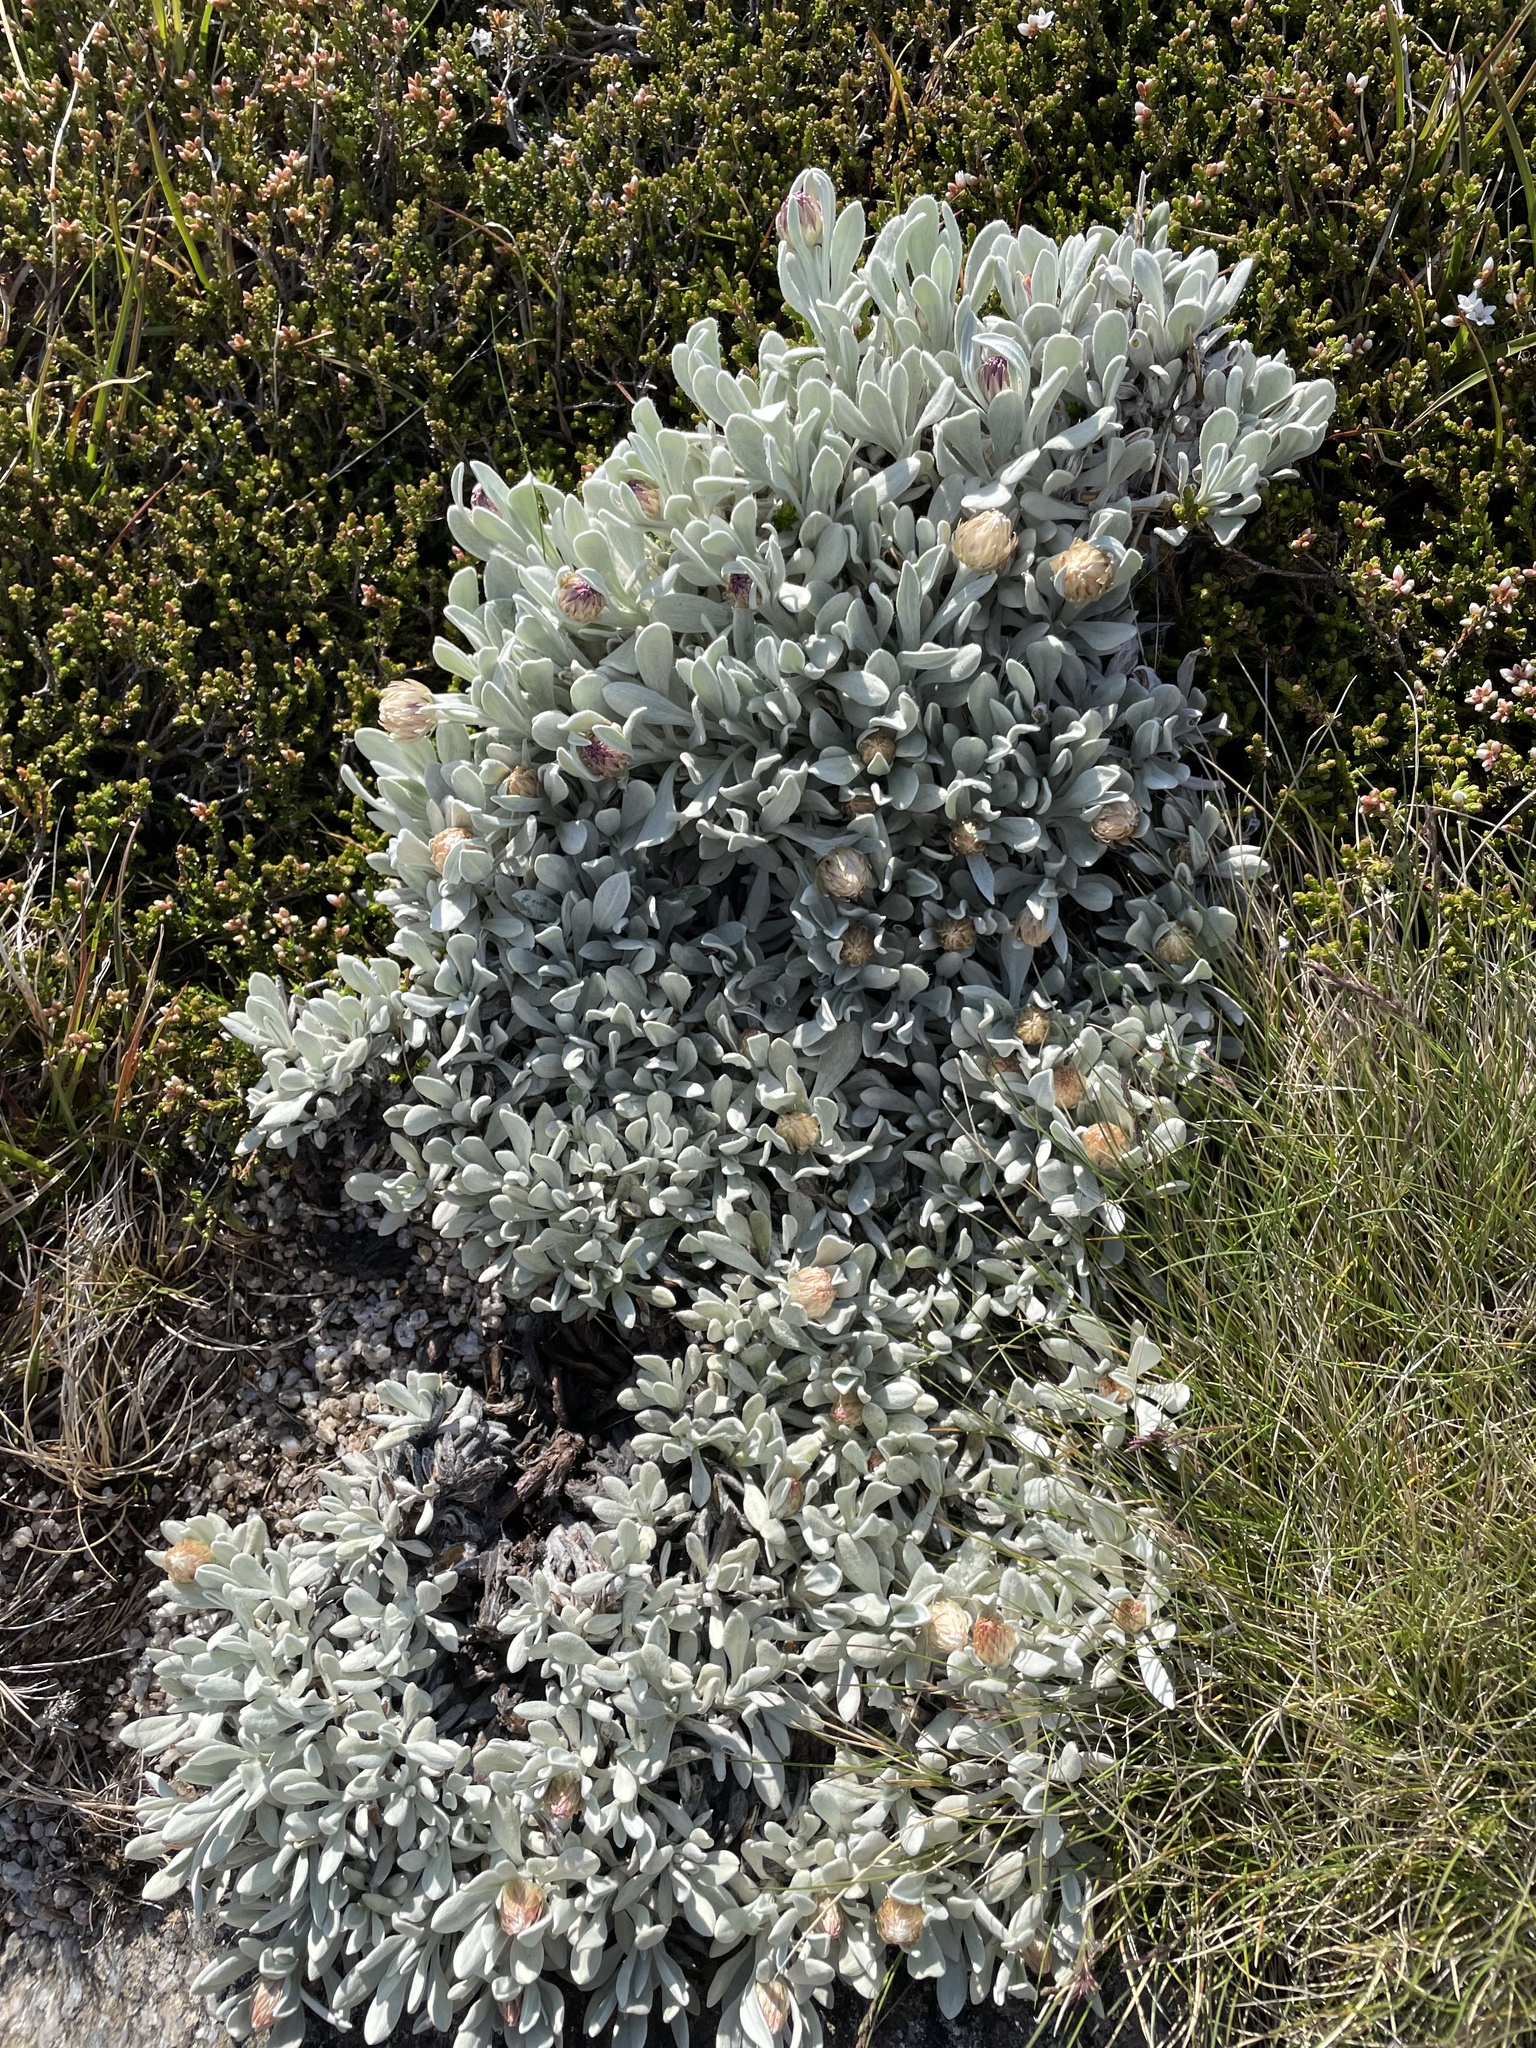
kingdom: Plantae
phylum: Tracheophyta
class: Magnoliopsida
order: Asterales
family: Asteraceae
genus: Leucochrysum
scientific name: Leucochrysum alpinum
